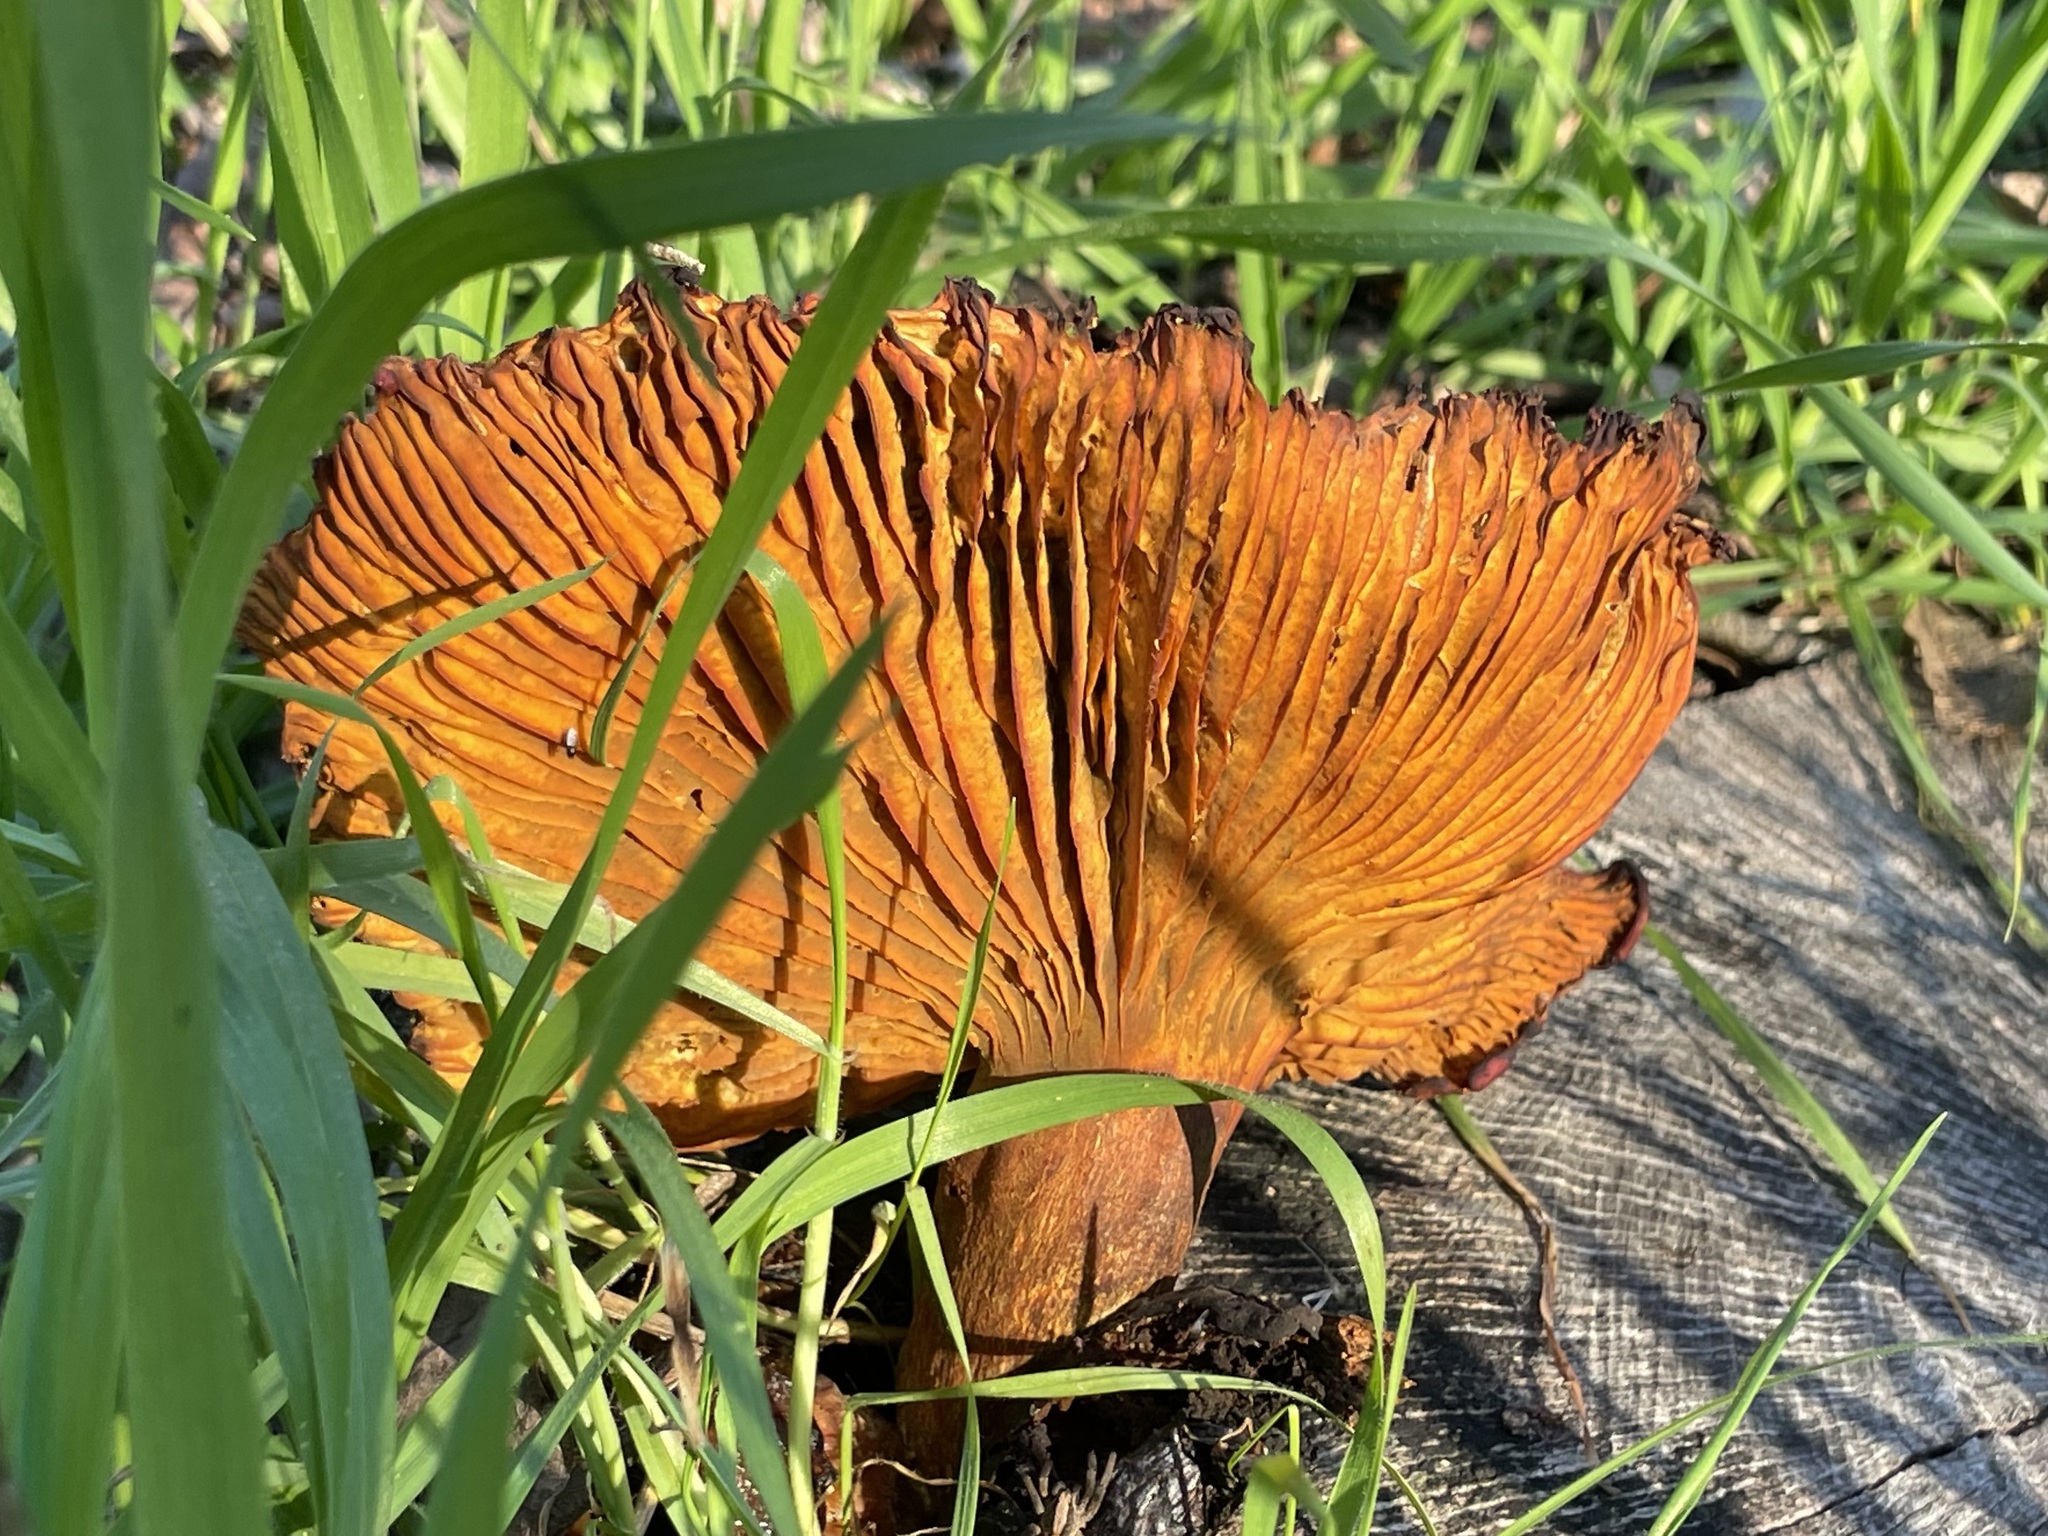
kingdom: Fungi
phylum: Basidiomycota
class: Agaricomycetes
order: Agaricales
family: Omphalotaceae
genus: Omphalotus
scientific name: Omphalotus olivascens
